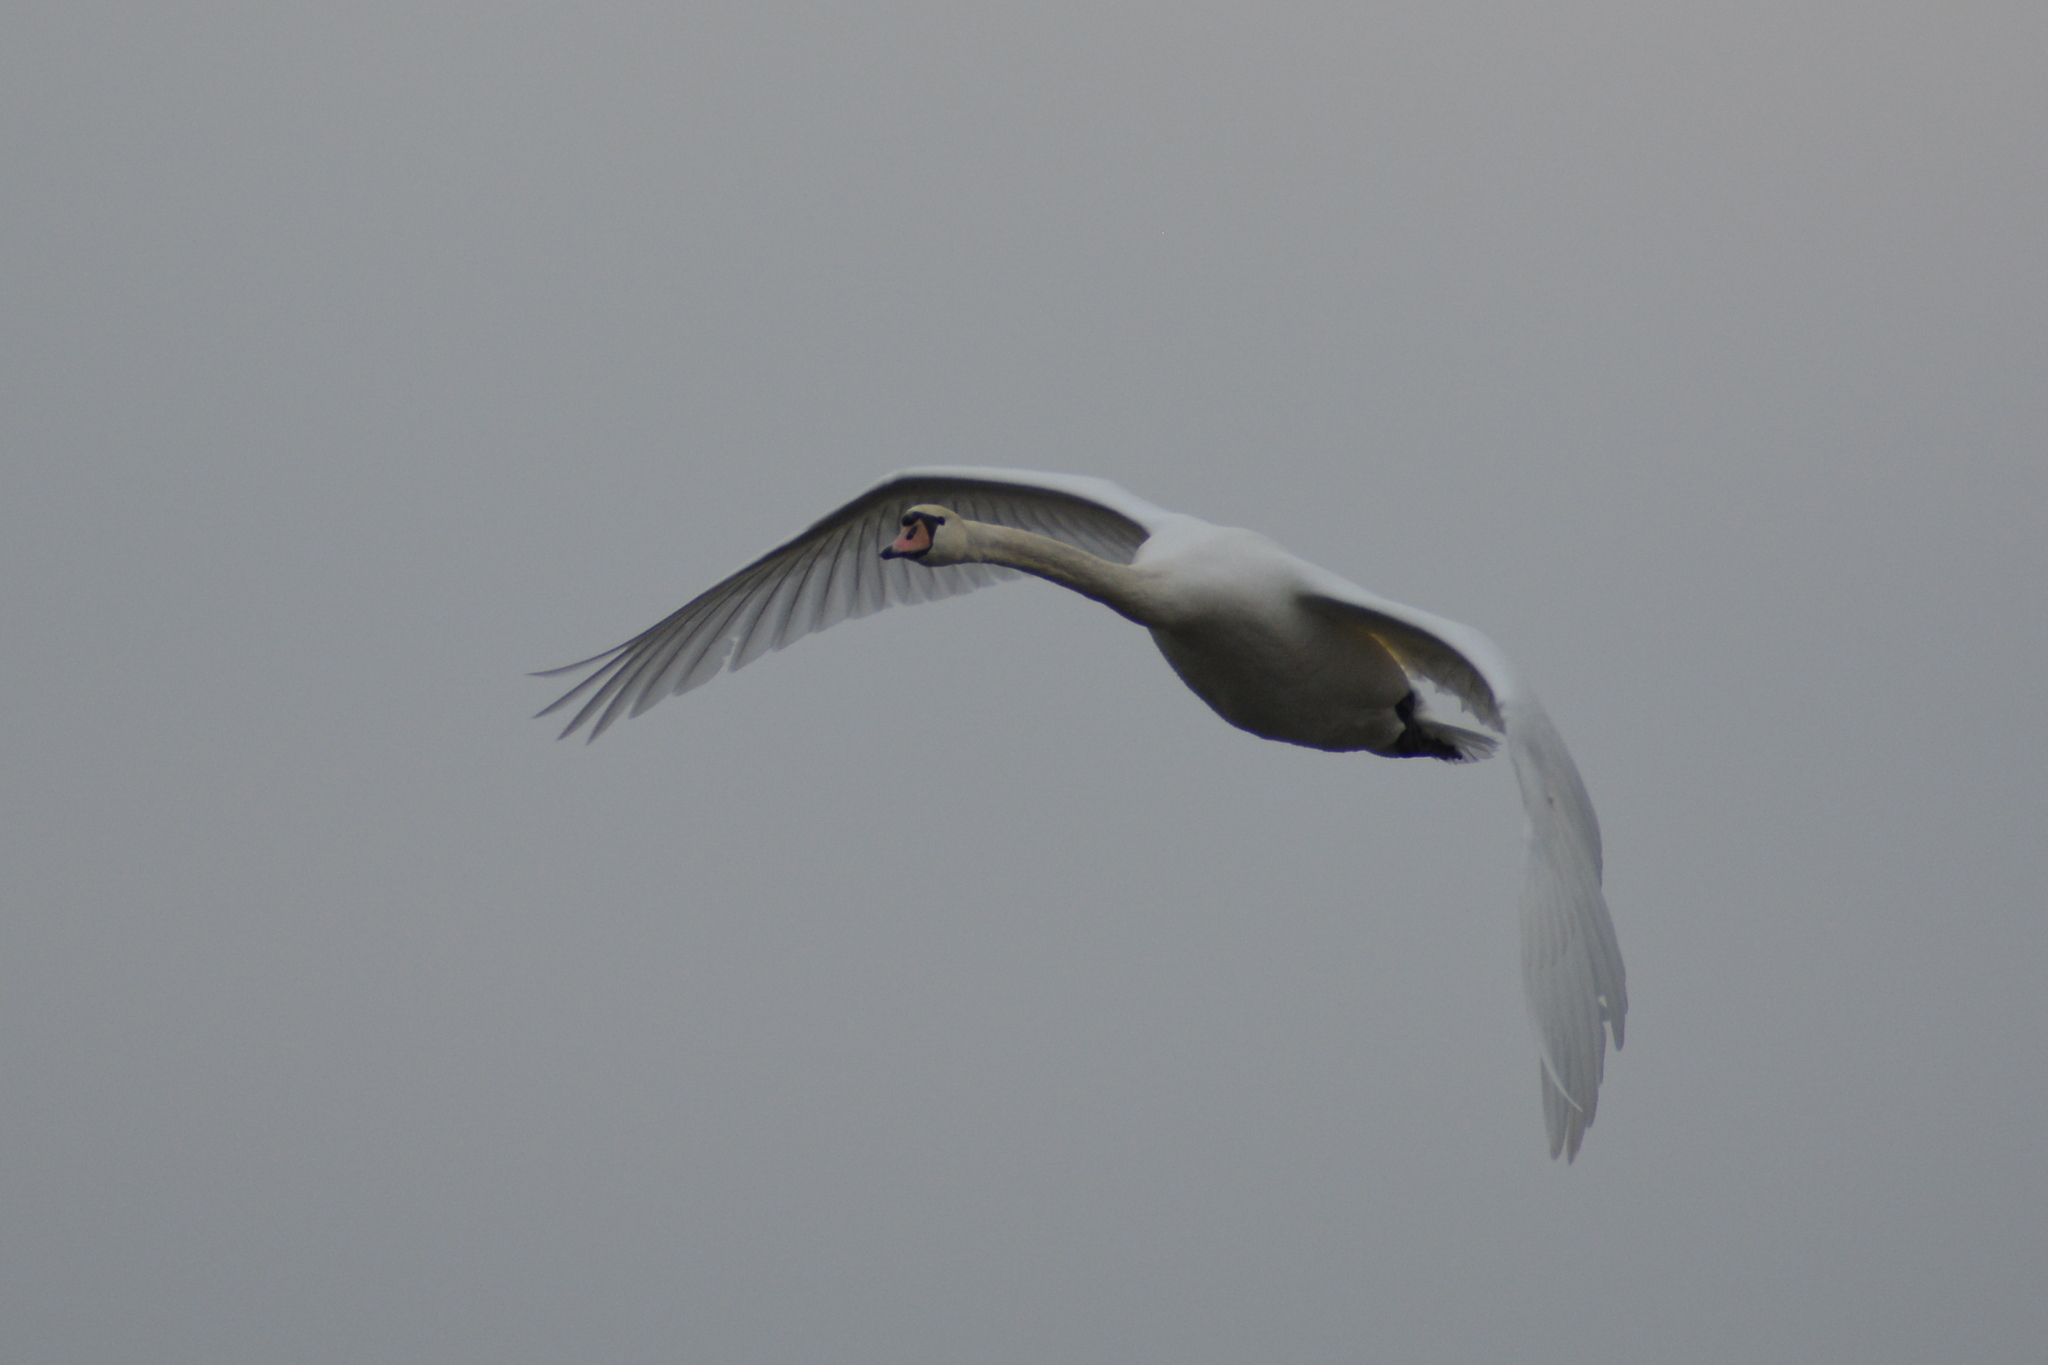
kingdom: Animalia
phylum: Chordata
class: Aves
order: Anseriformes
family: Anatidae
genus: Cygnus
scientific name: Cygnus olor
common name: Mute swan
